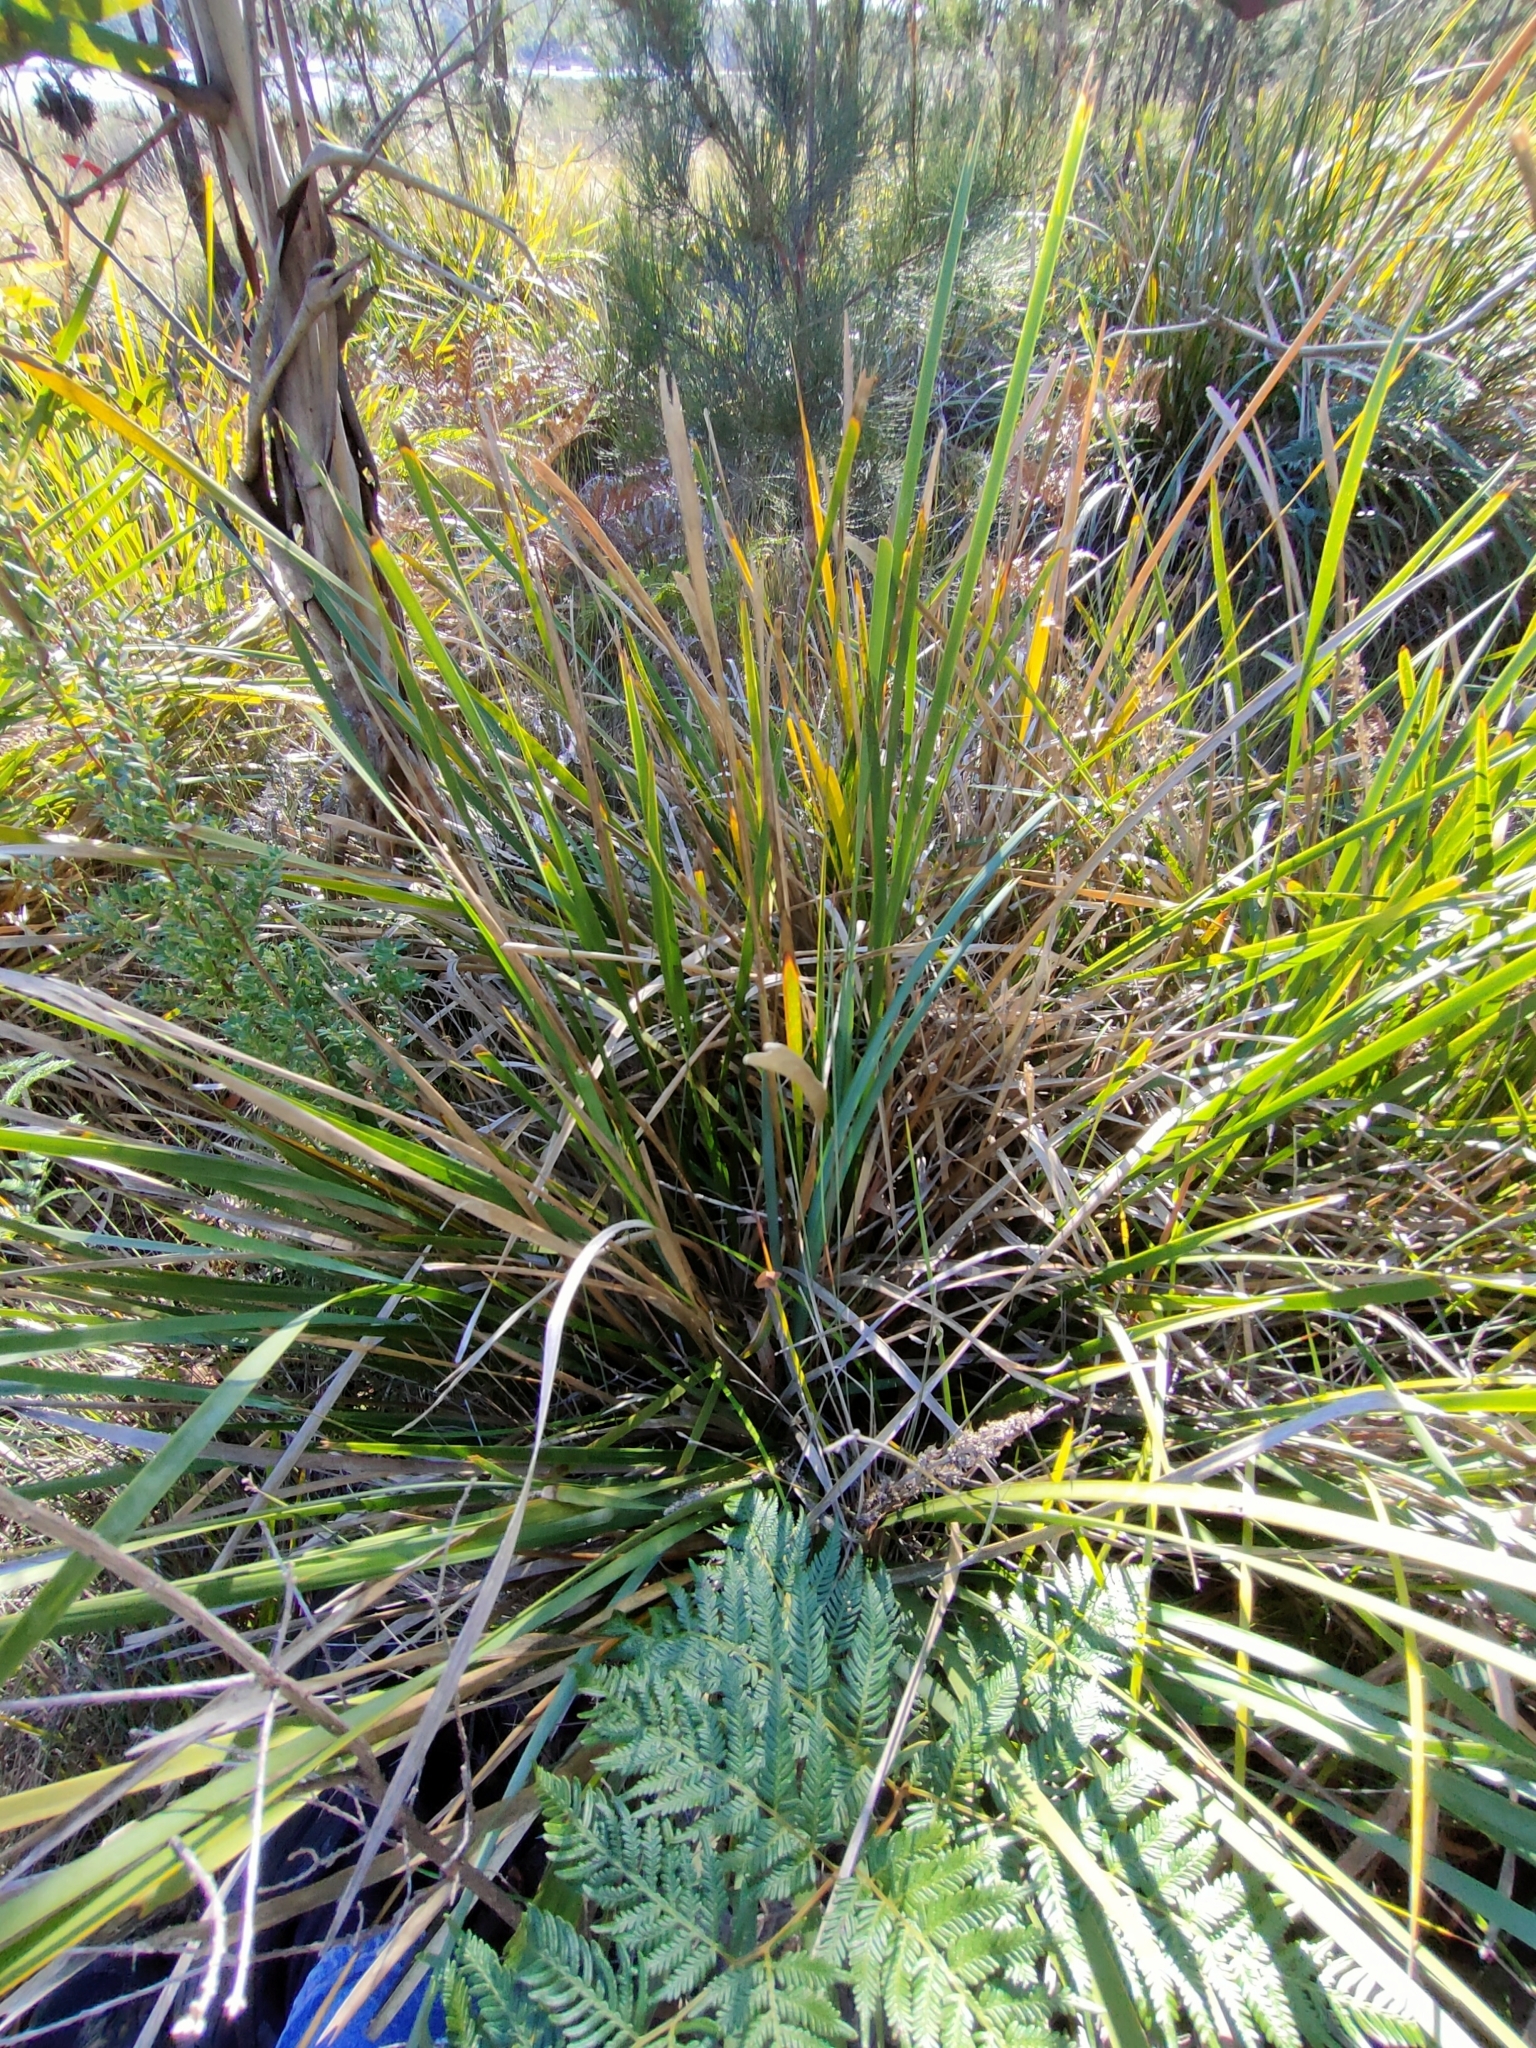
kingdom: Plantae
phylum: Tracheophyta
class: Liliopsida
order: Asparagales
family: Asparagaceae
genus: Lomandra
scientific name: Lomandra longifolia
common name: Longleaf mat-rush
